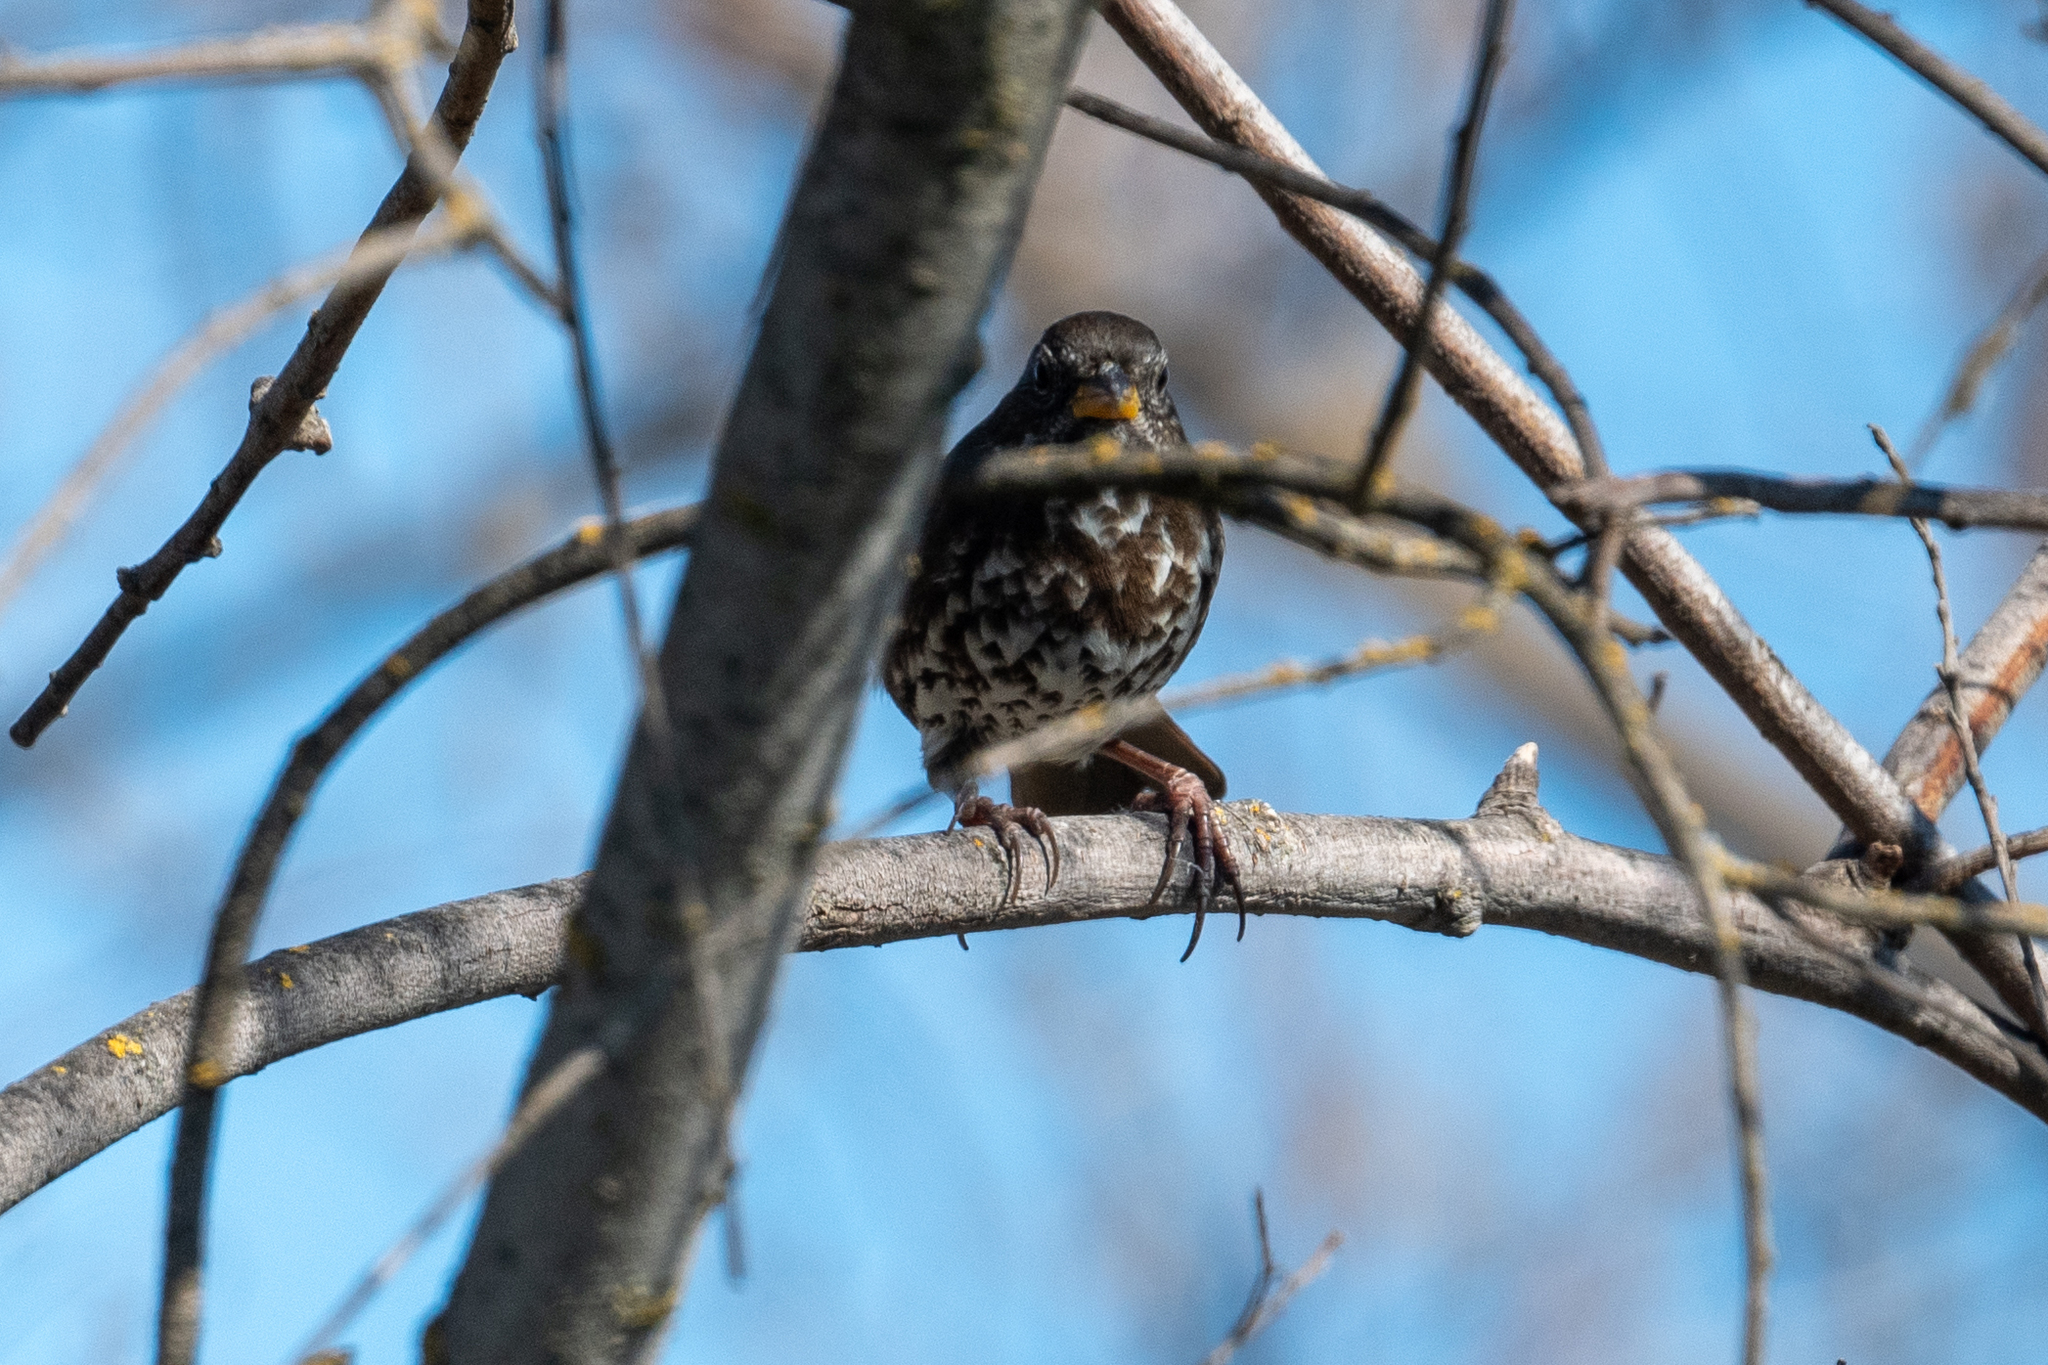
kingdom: Animalia
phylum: Chordata
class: Aves
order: Passeriformes
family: Passerellidae
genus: Passerella
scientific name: Passerella iliaca
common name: Fox sparrow
